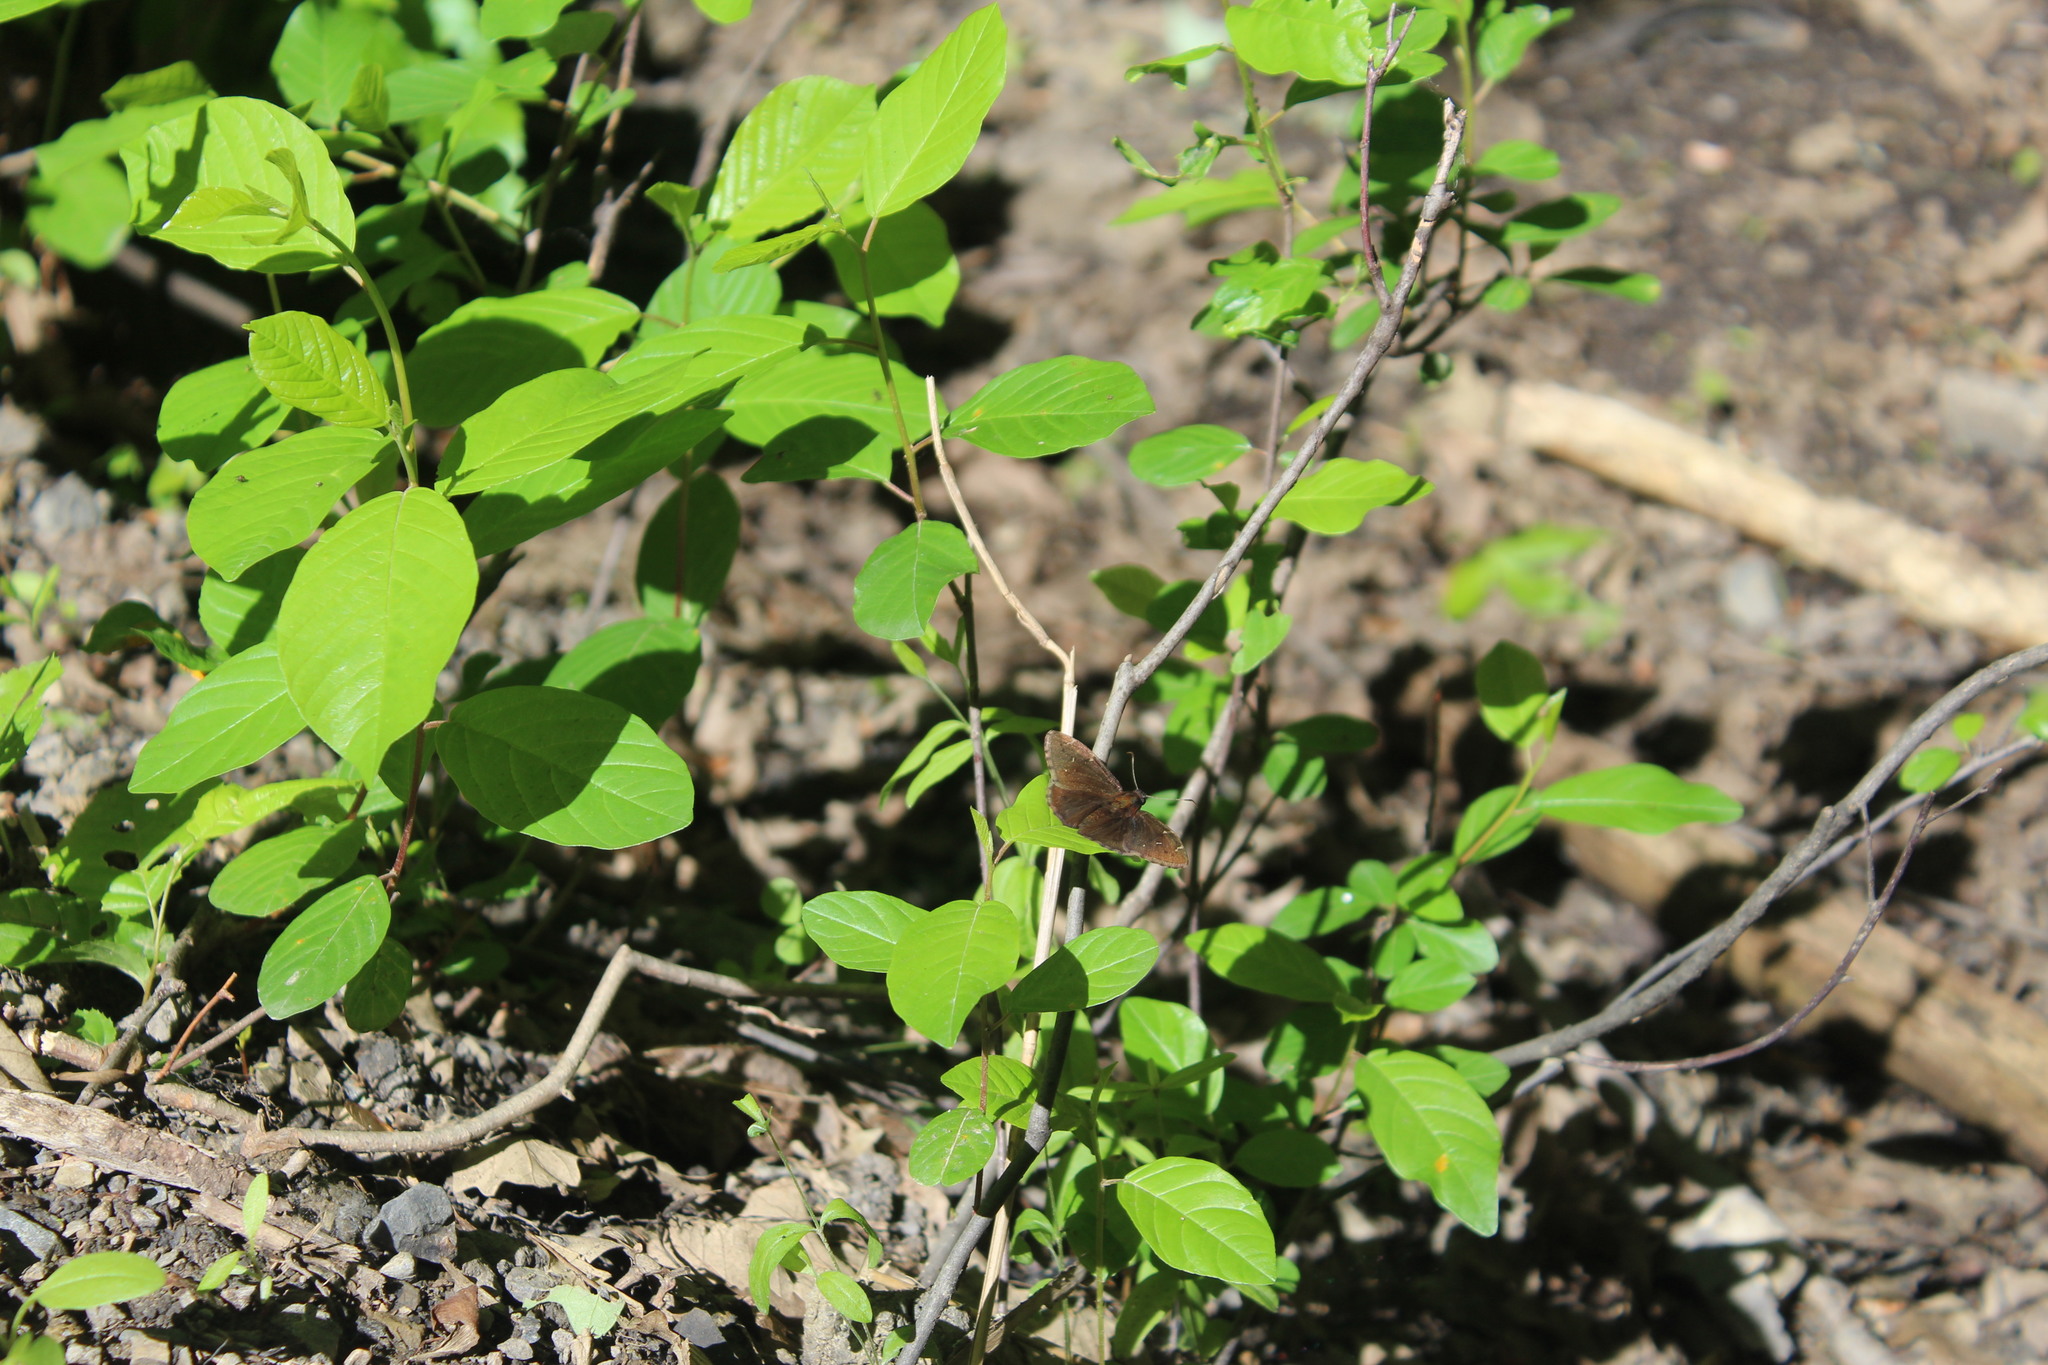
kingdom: Animalia
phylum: Arthropoda
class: Insecta
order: Lepidoptera
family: Hesperiidae
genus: Thorybes
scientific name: Thorybes pylades
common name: Northern cloudywing
